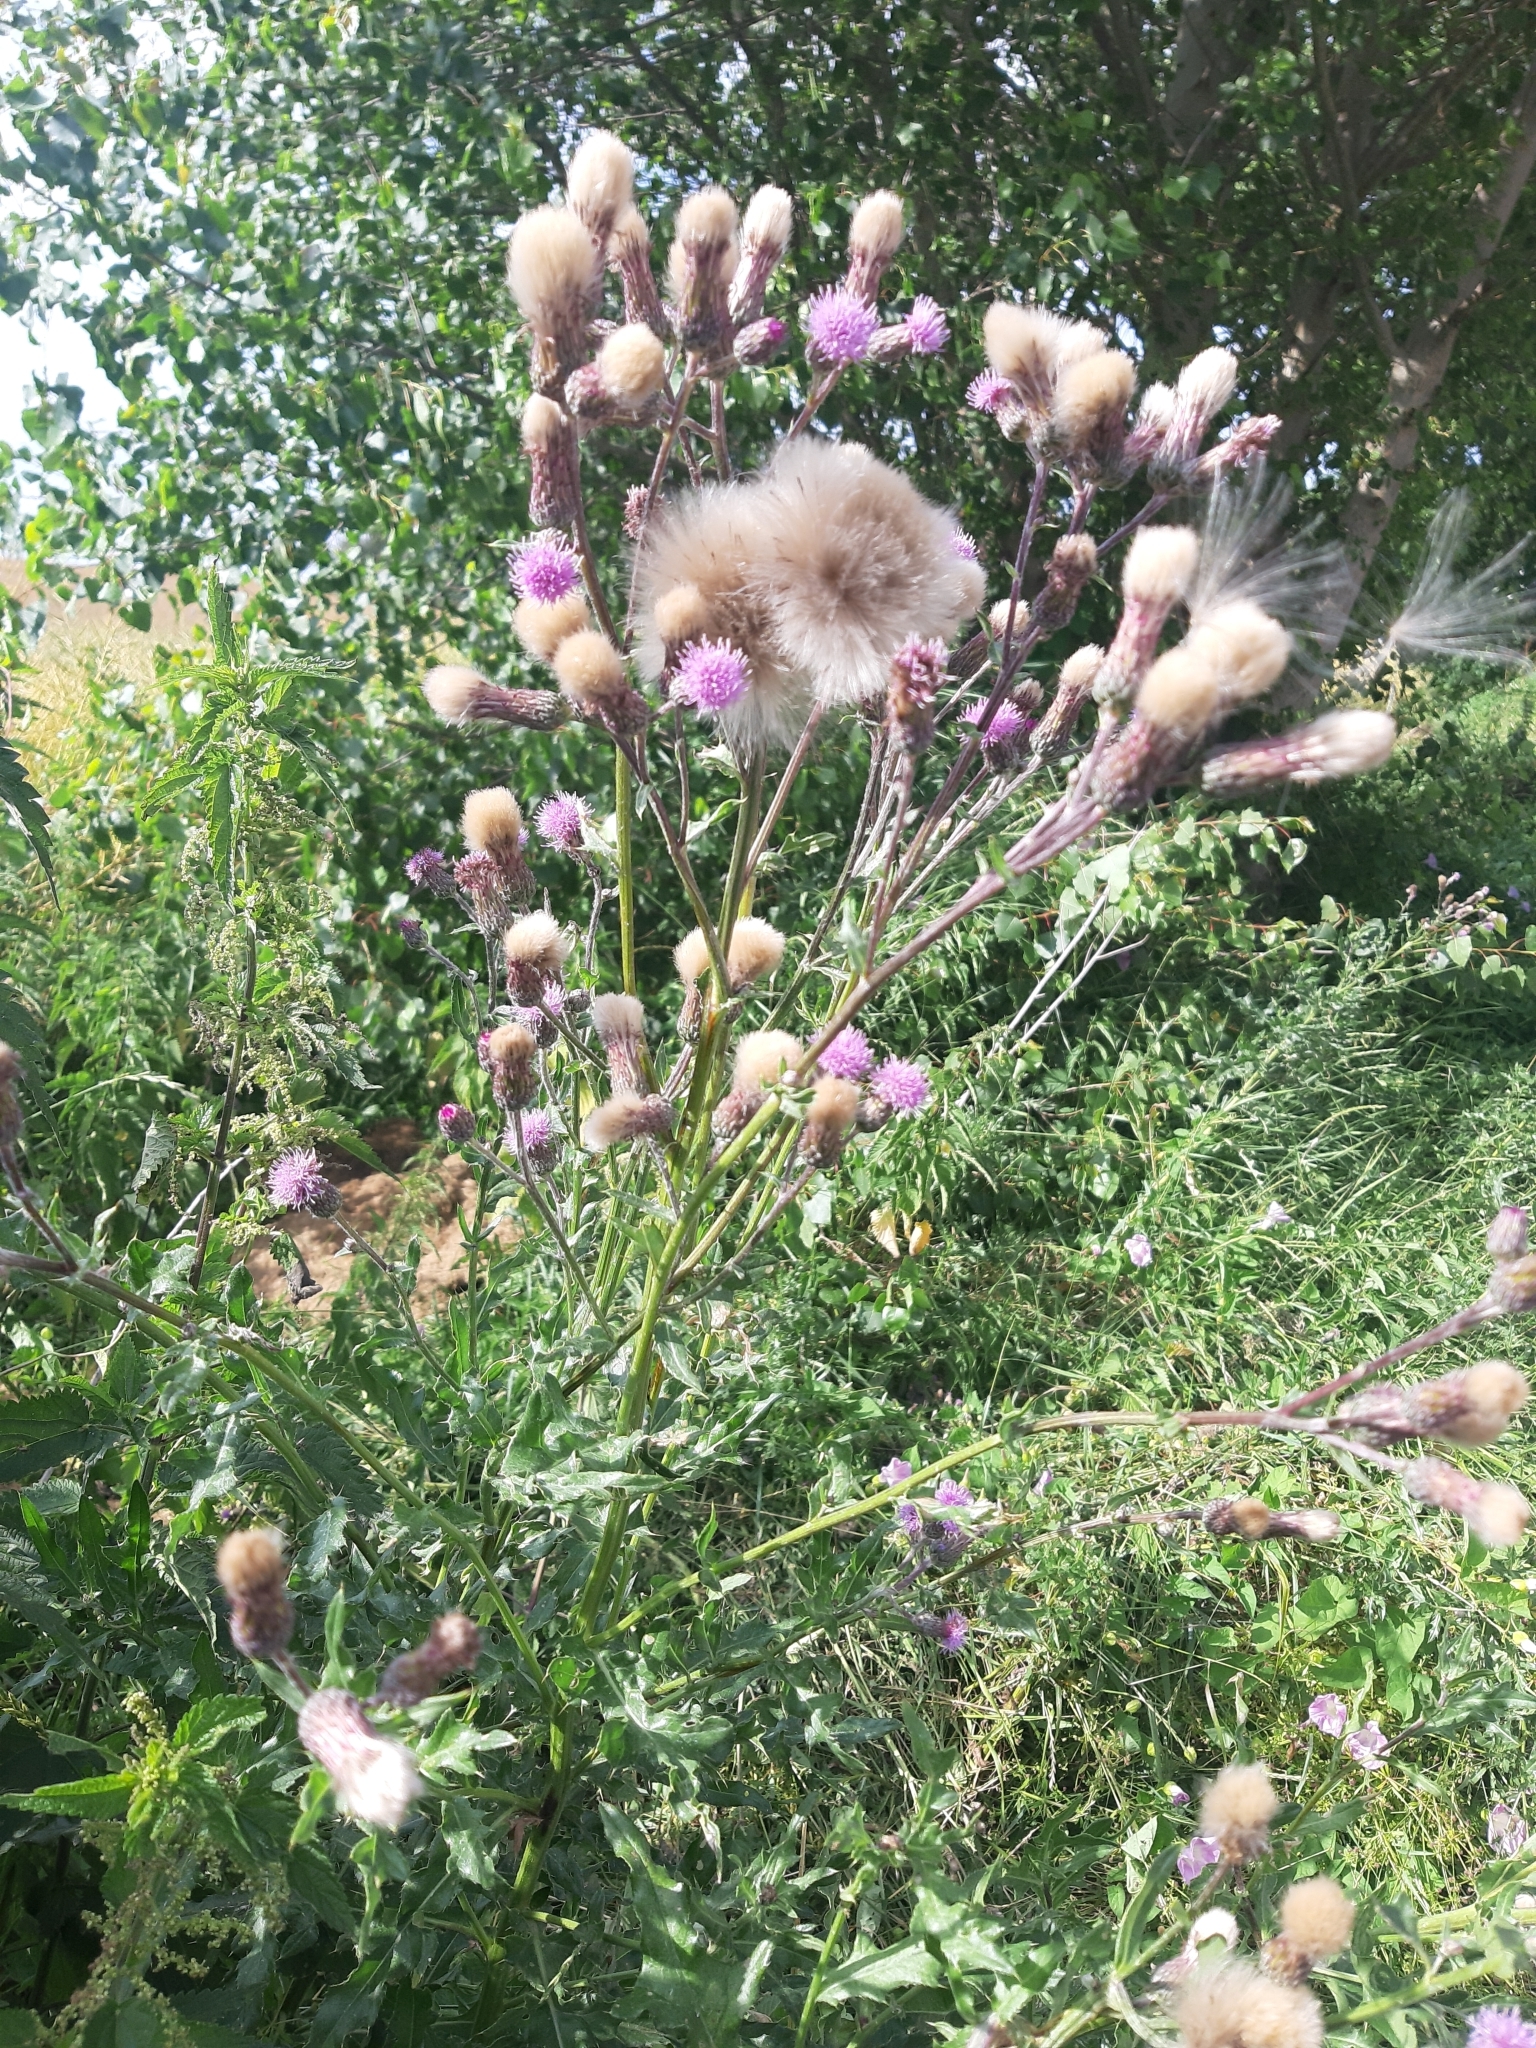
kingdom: Plantae
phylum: Tracheophyta
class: Magnoliopsida
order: Asterales
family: Asteraceae
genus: Cirsium
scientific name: Cirsium arvense
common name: Creeping thistle
